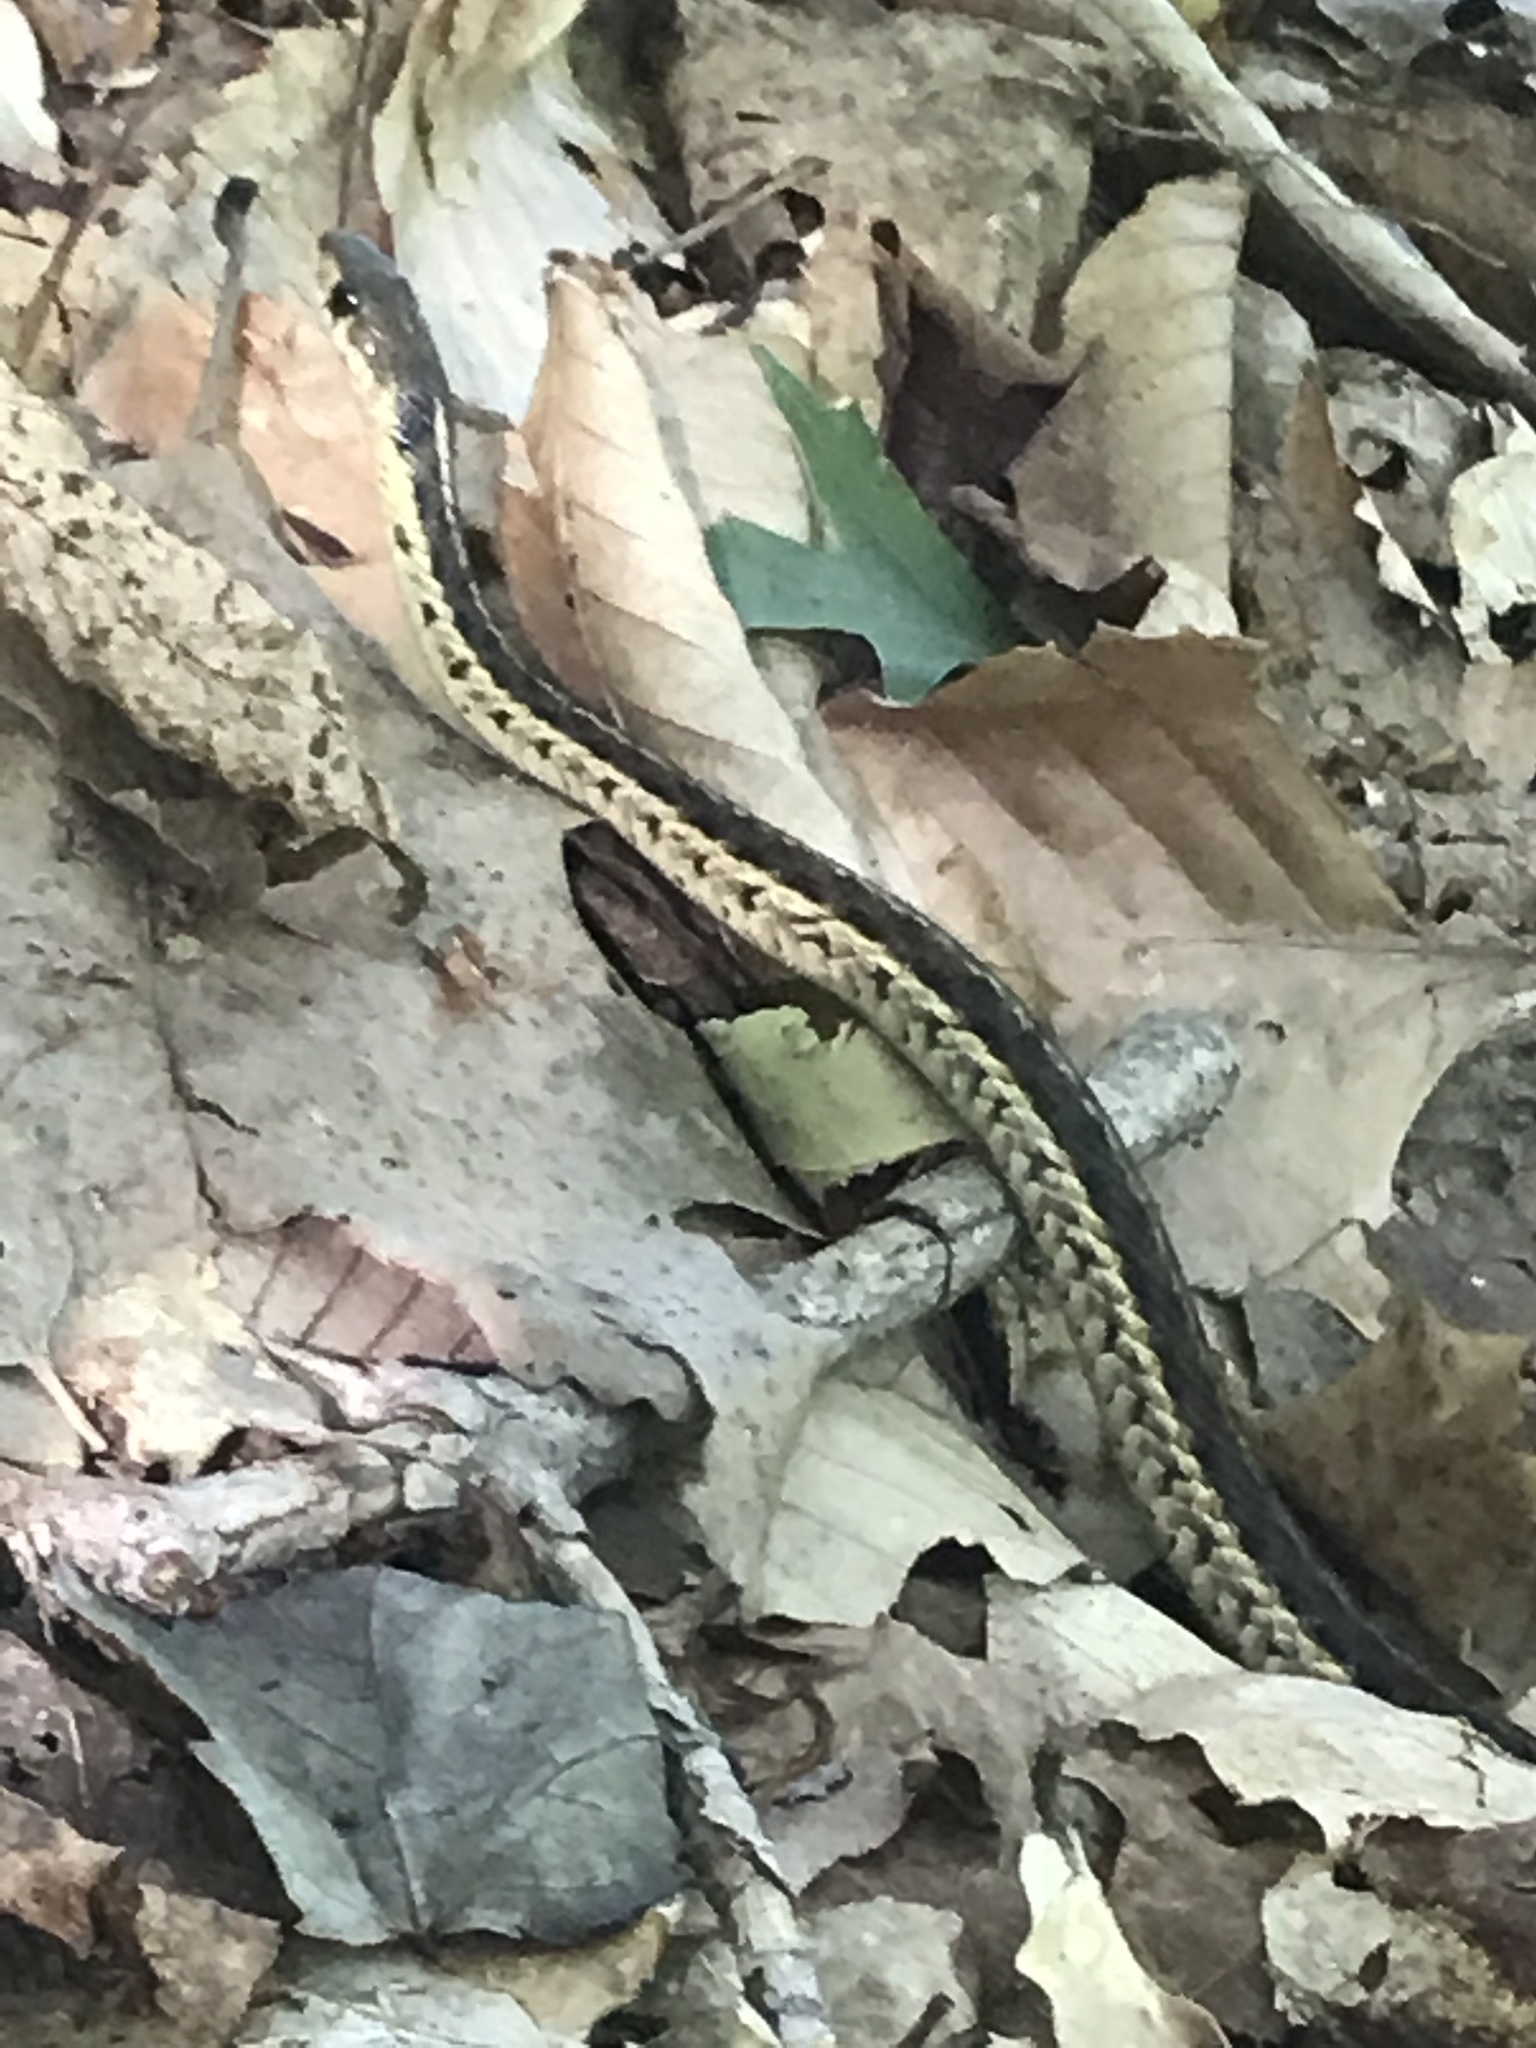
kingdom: Animalia
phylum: Chordata
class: Squamata
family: Colubridae
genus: Thamnophis
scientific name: Thamnophis sirtalis
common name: Common garter snake
